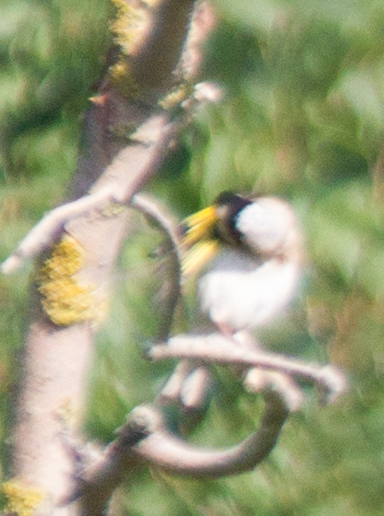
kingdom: Animalia
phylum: Chordata
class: Aves
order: Passeriformes
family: Fringillidae
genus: Carduelis
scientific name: Carduelis carduelis
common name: European goldfinch
